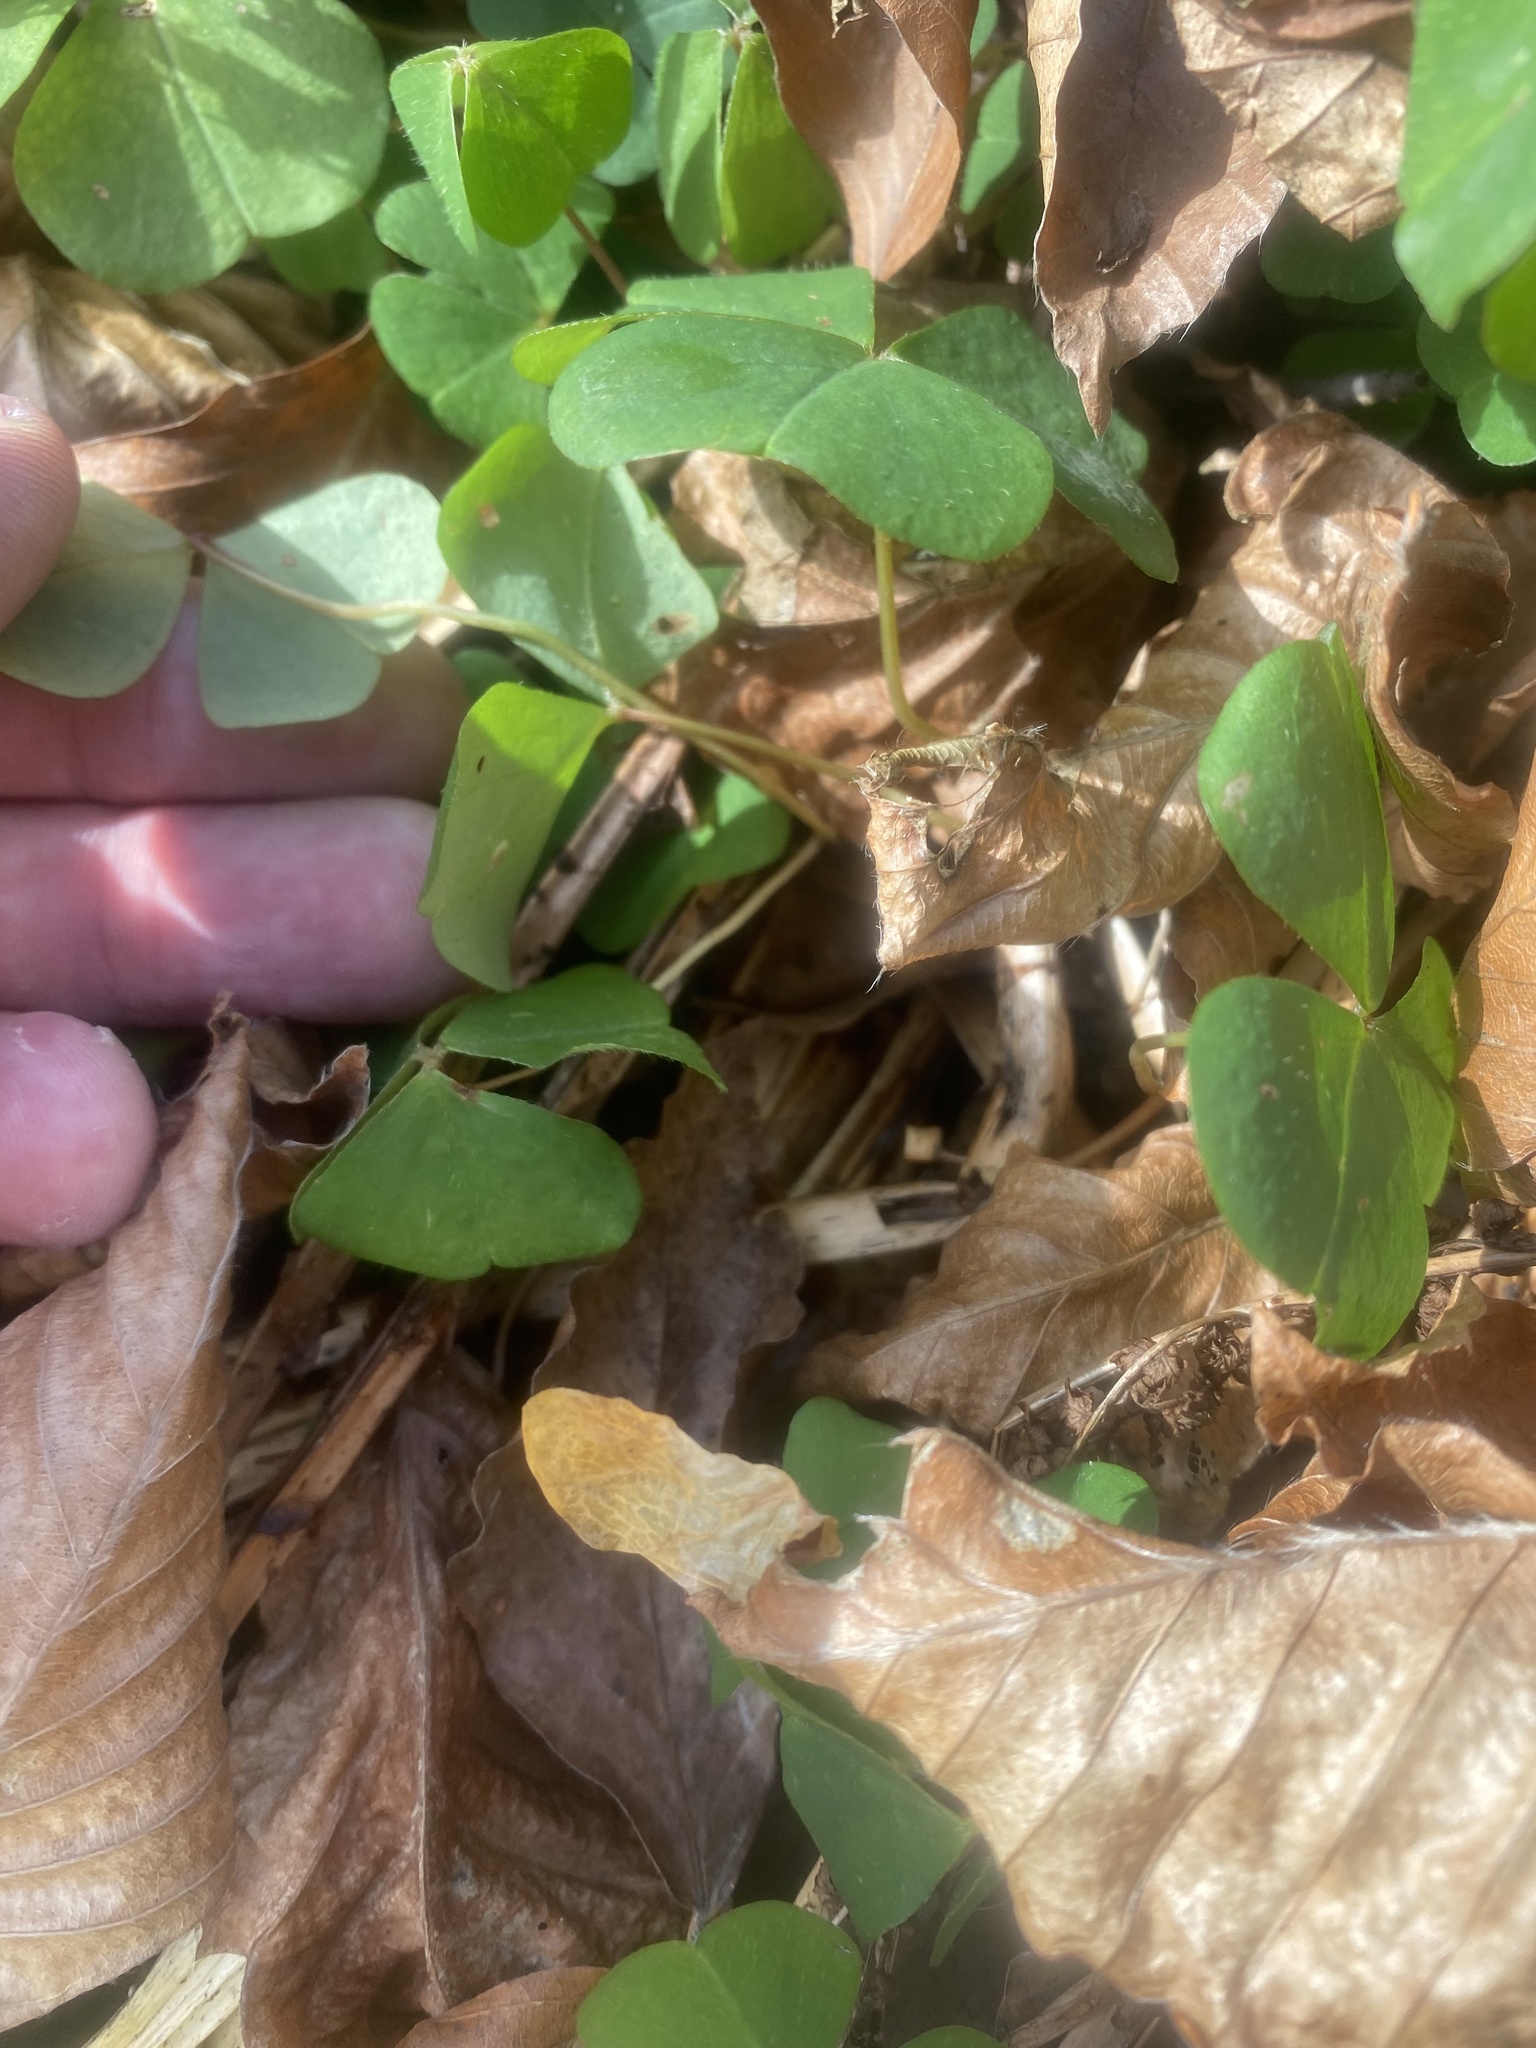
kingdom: Plantae
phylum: Tracheophyta
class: Magnoliopsida
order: Oxalidales
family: Oxalidaceae
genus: Oxalis
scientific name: Oxalis acetosella
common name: Wood-sorrel
